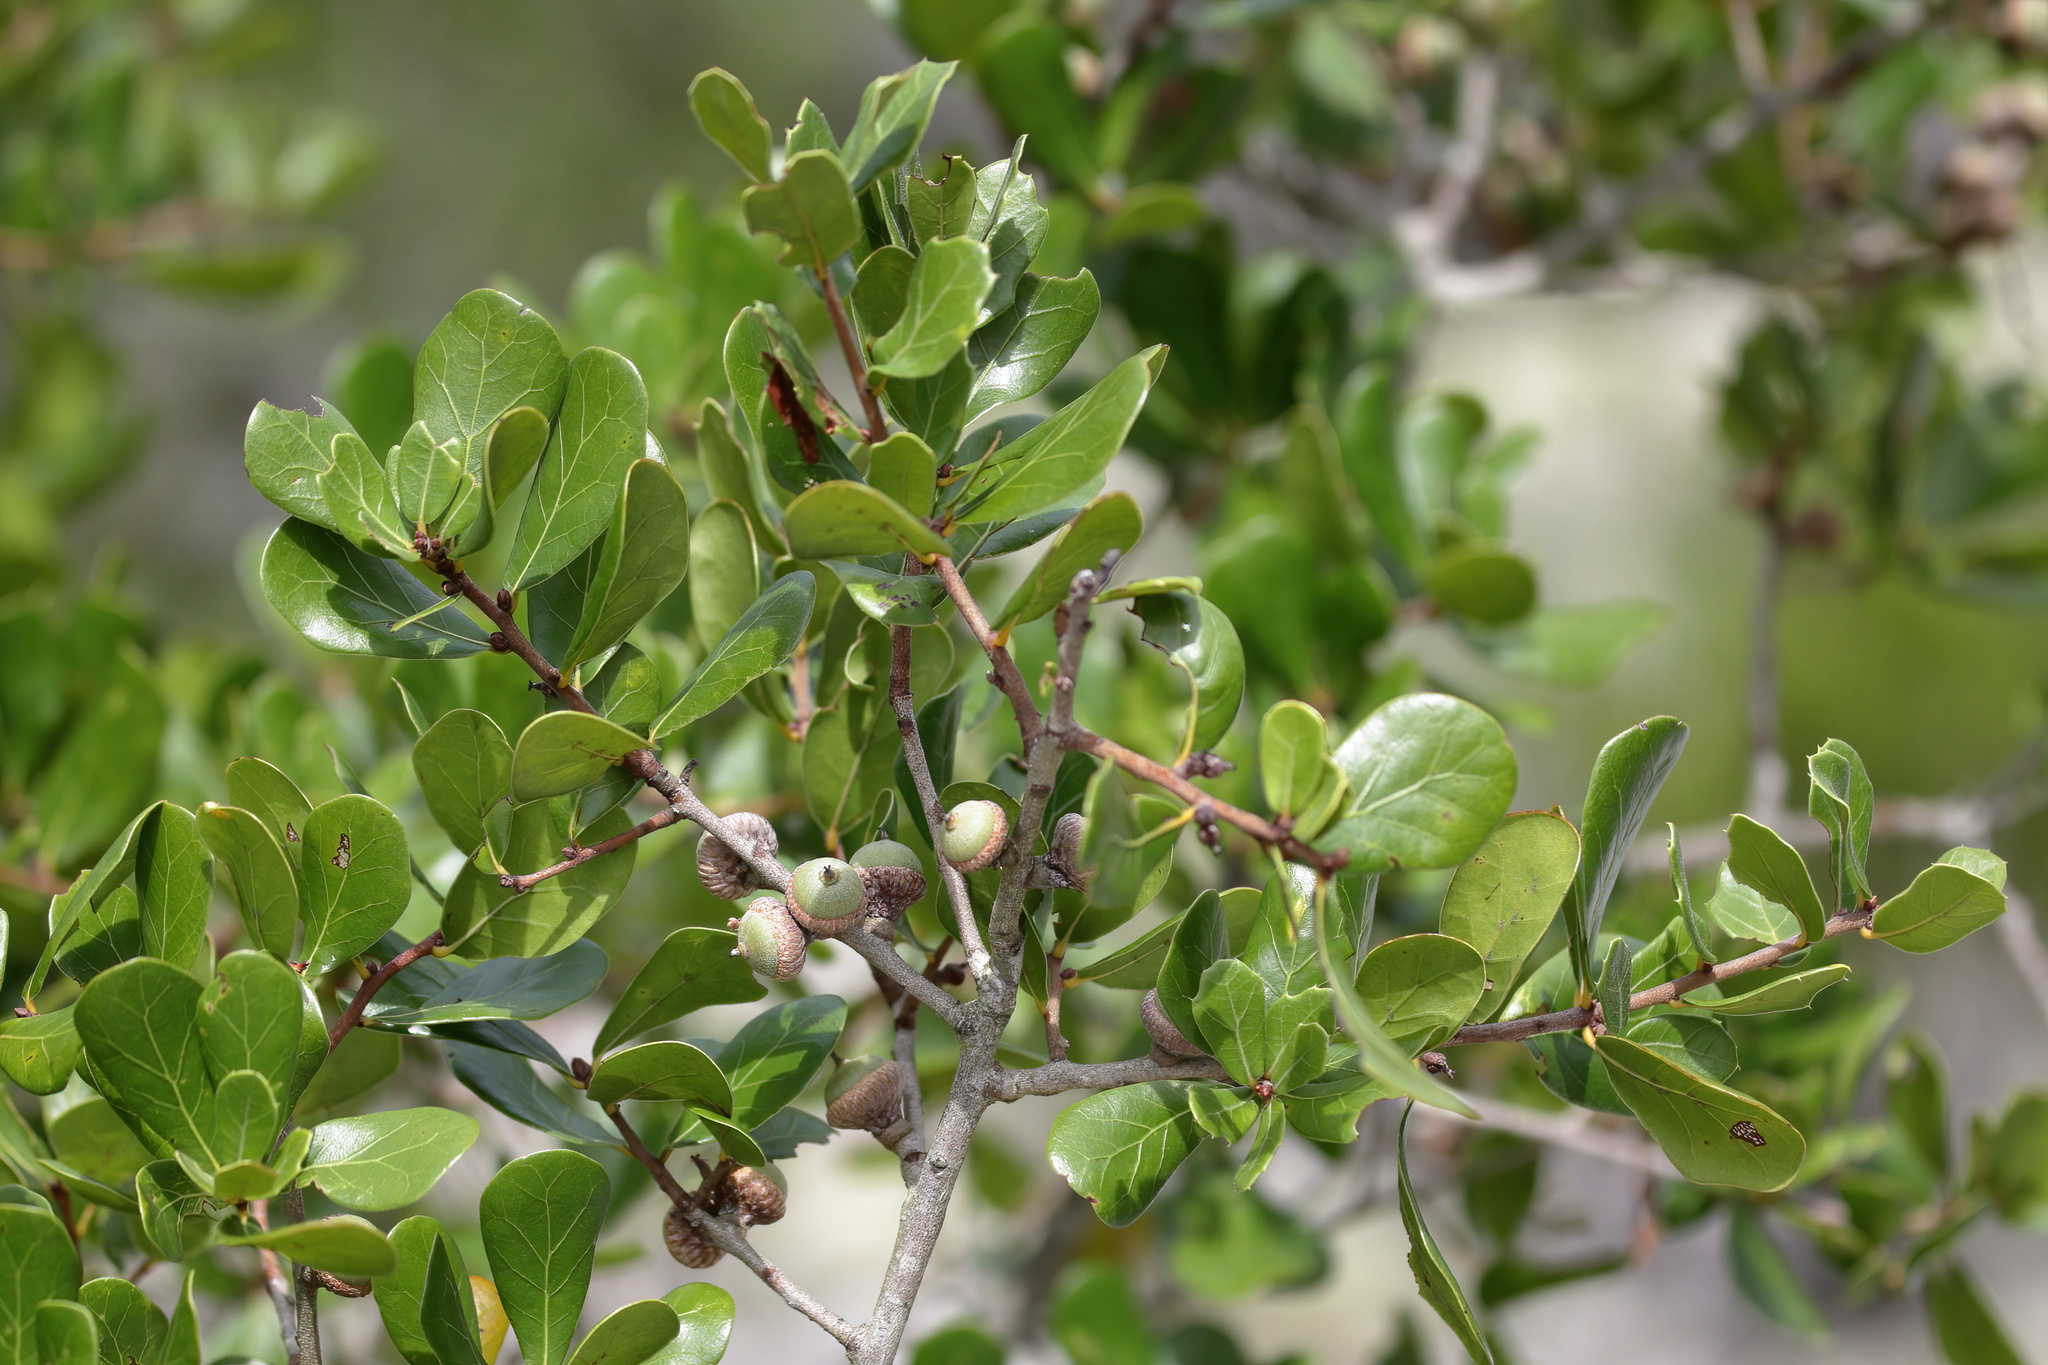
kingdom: Plantae
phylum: Tracheophyta
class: Magnoliopsida
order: Fagales
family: Fagaceae
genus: Quercus
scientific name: Quercus myrtifolia
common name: Myrtle oak
